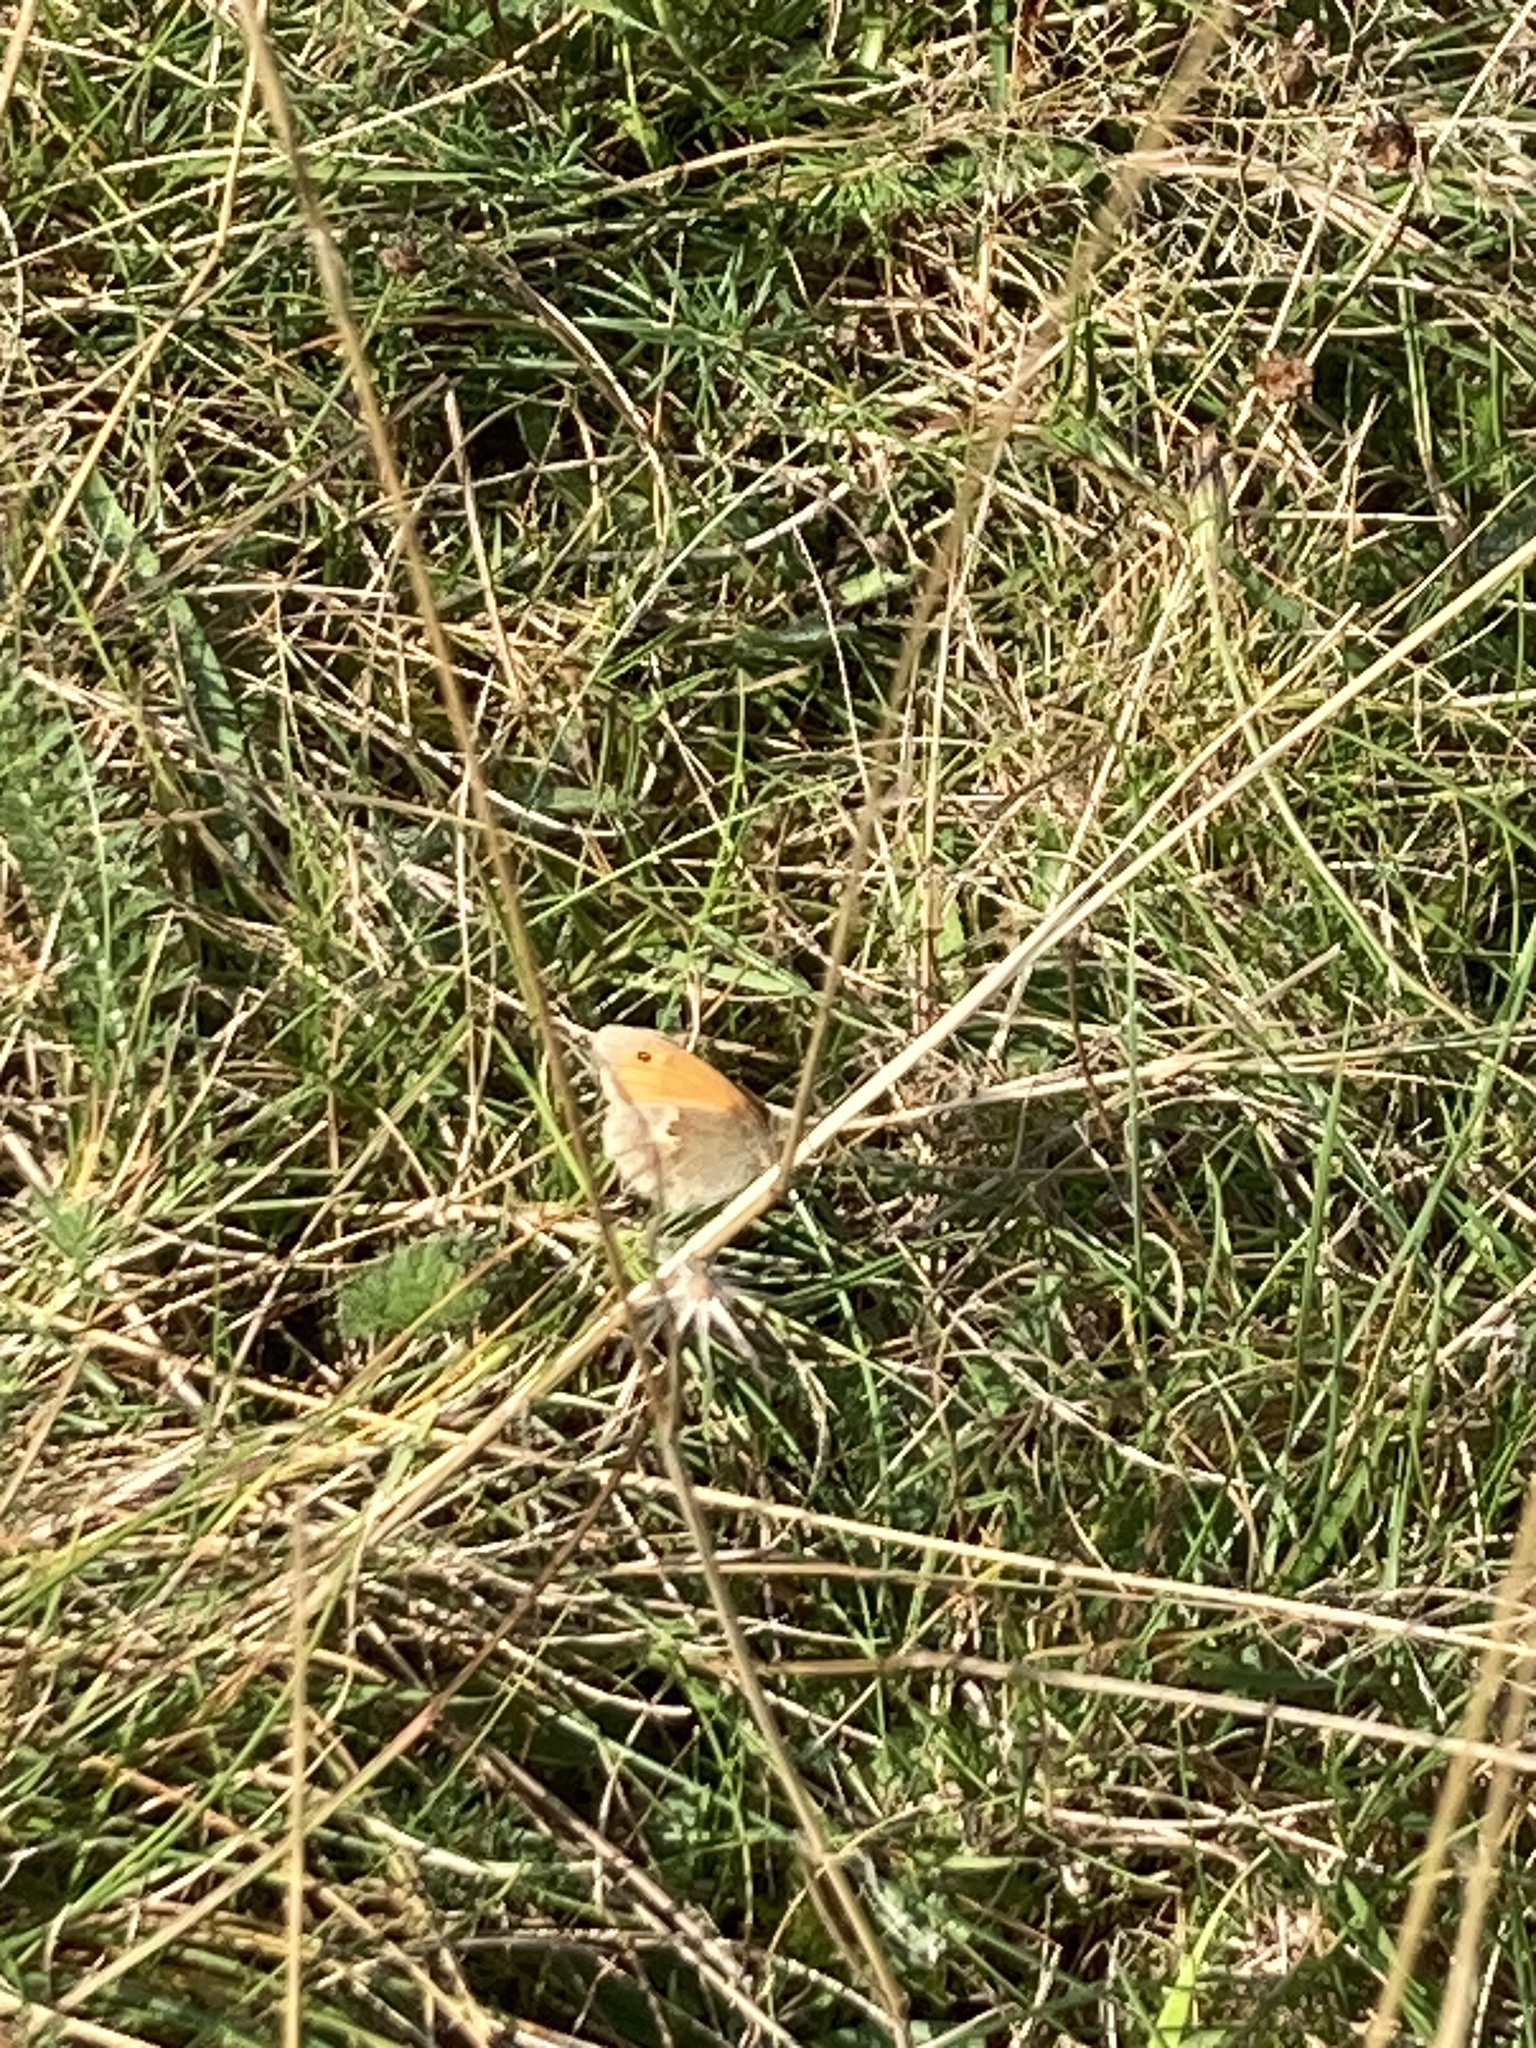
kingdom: Animalia
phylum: Arthropoda
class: Insecta
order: Lepidoptera
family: Nymphalidae
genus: Coenonympha
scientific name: Coenonympha pamphilus
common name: Small heath
